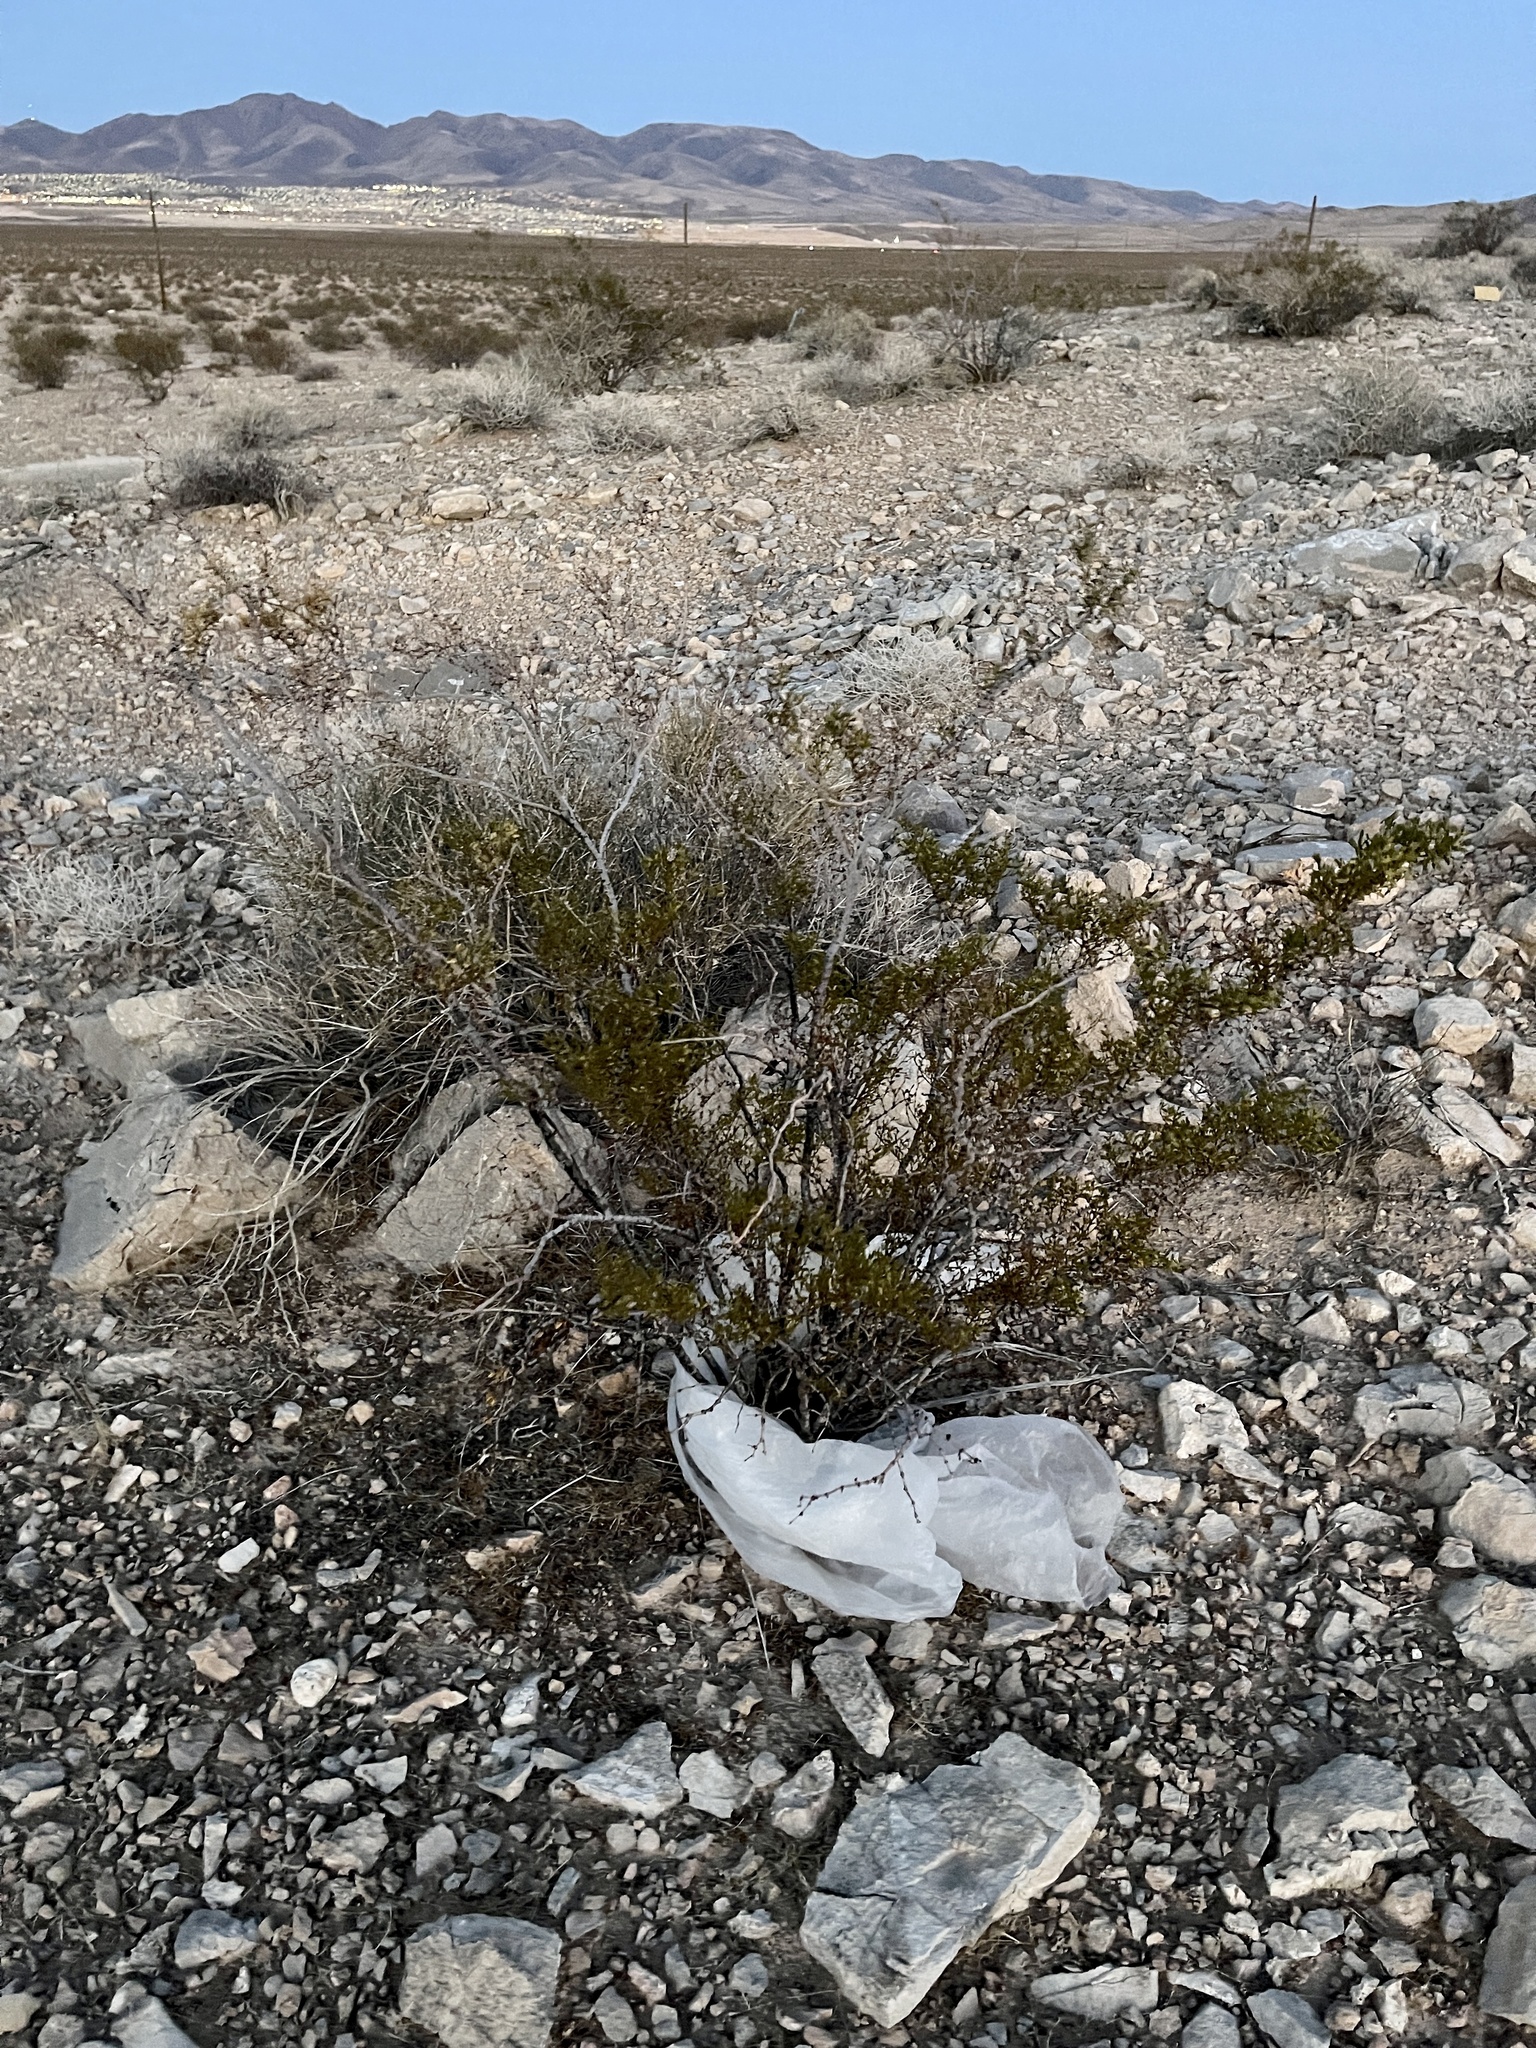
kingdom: Plantae
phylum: Tracheophyta
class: Magnoliopsida
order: Zygophyllales
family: Zygophyllaceae
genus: Larrea
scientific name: Larrea tridentata
